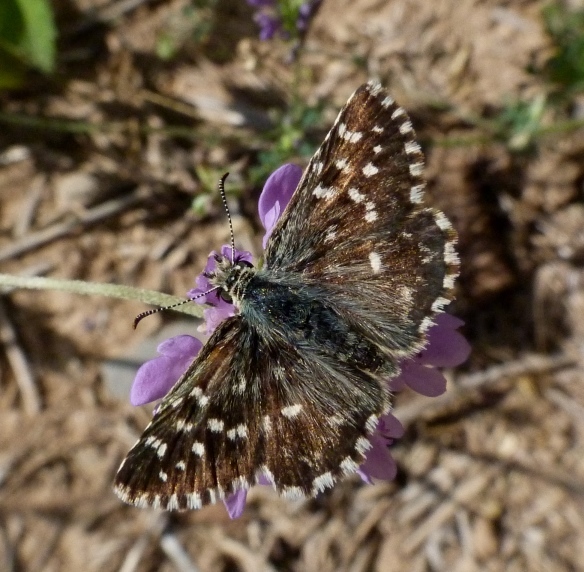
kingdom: Animalia
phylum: Arthropoda
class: Insecta
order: Lepidoptera
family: Hesperiidae
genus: Pyrgus
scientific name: Pyrgus malvoides
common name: Southern grizzled skipper
